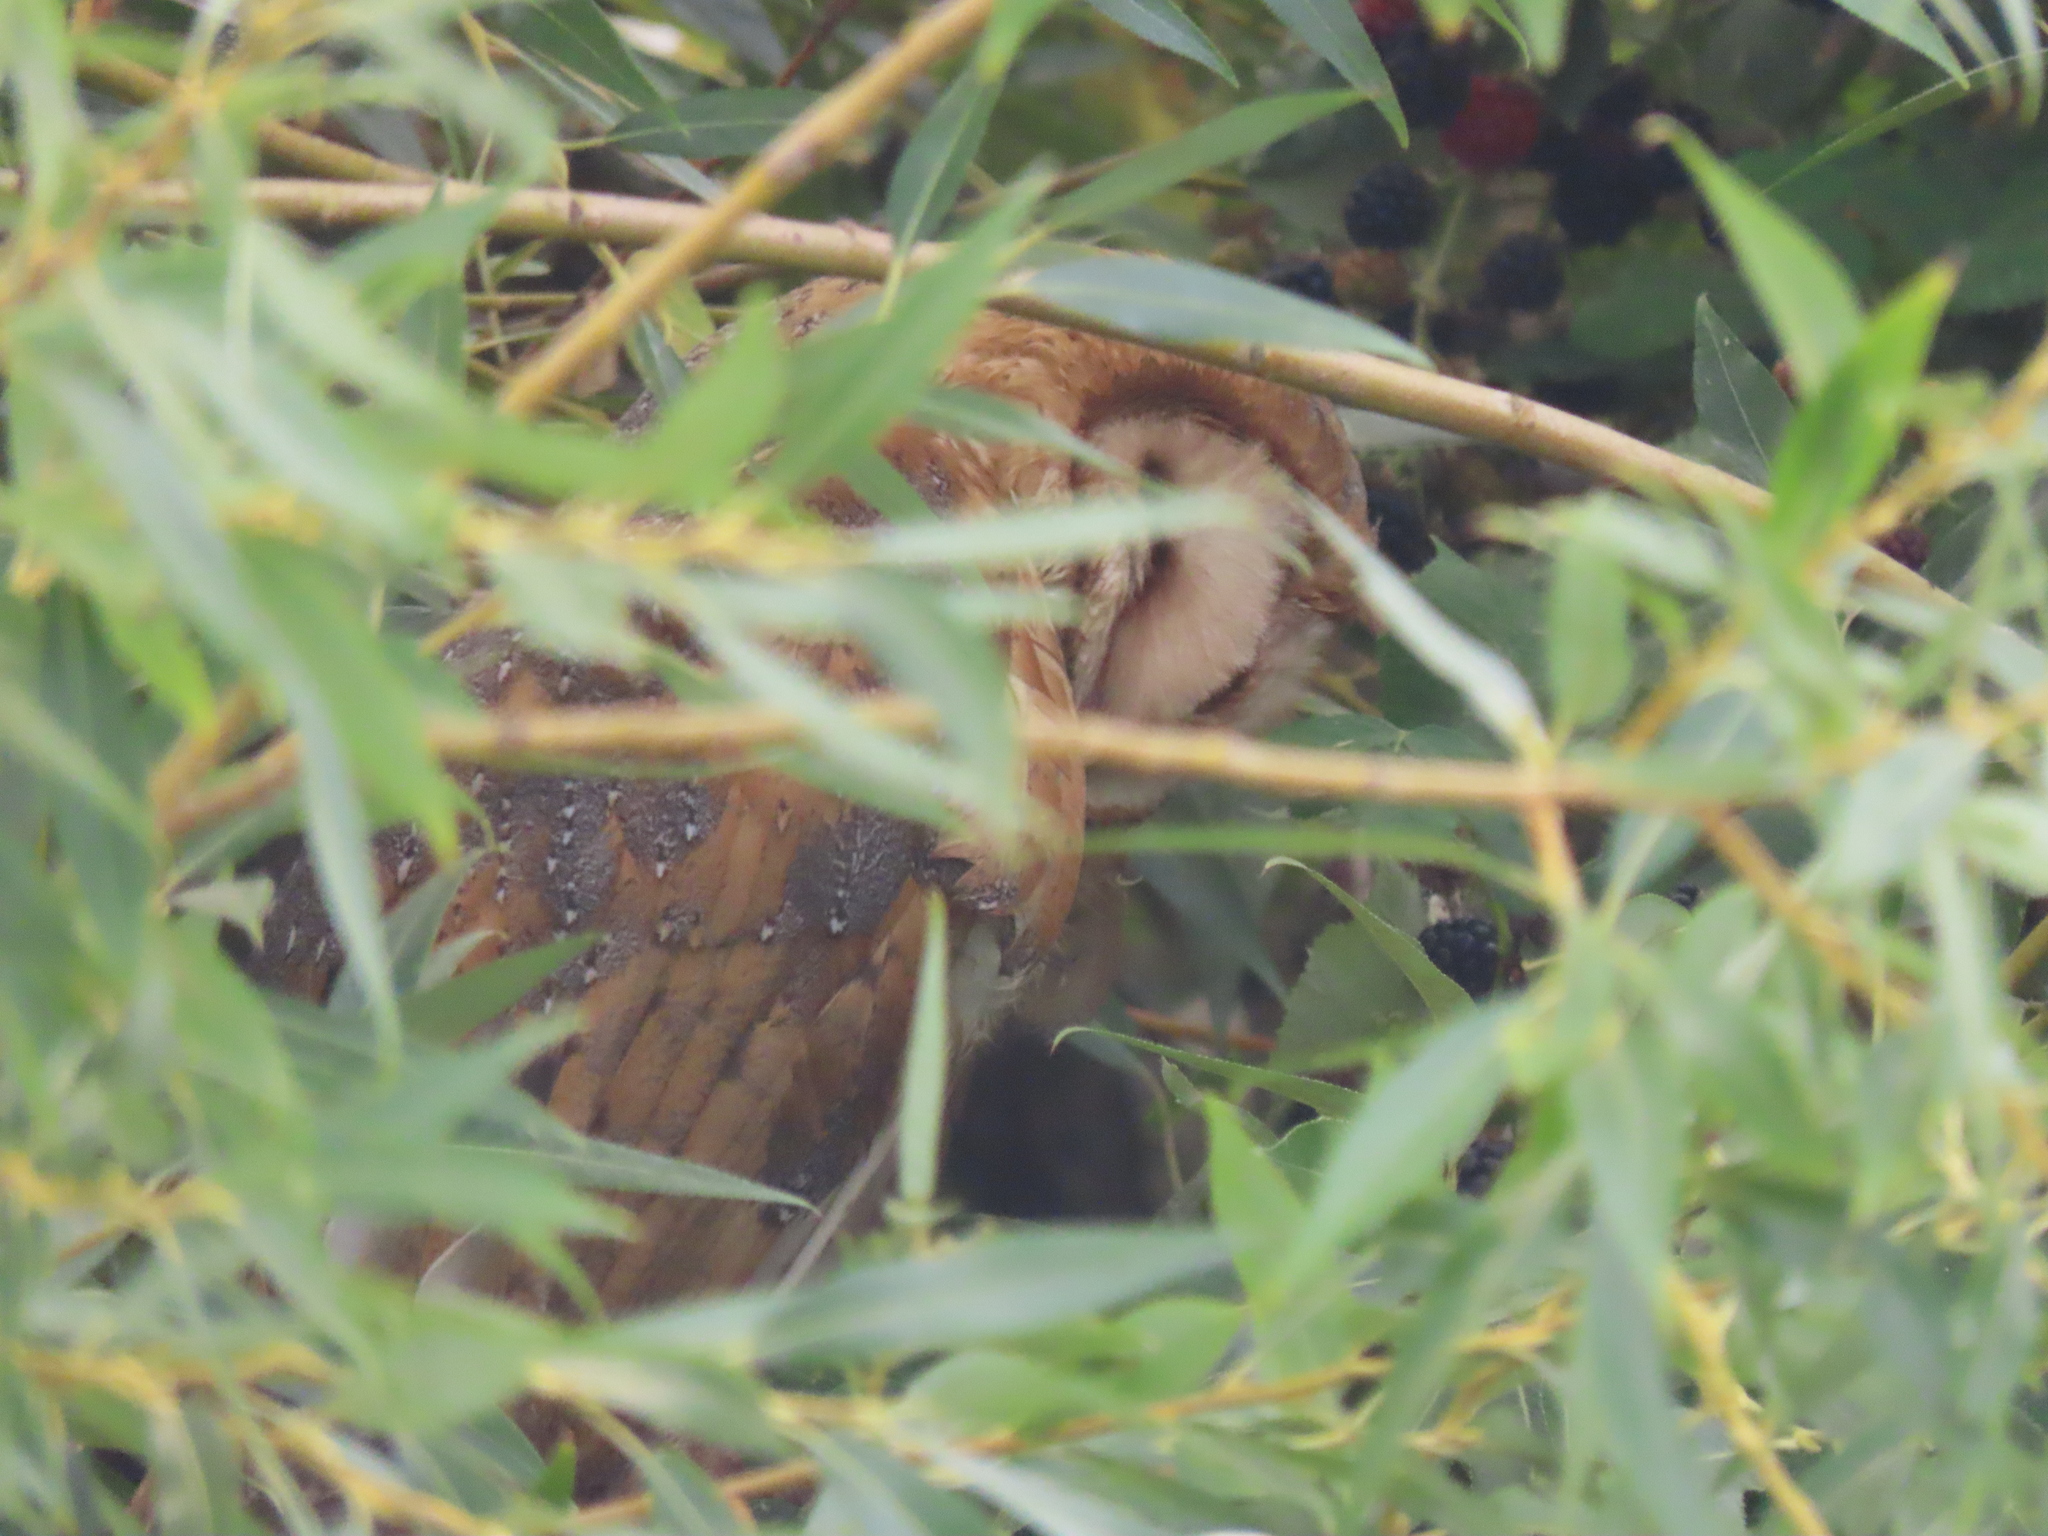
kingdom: Animalia
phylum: Chordata
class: Aves
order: Strigiformes
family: Tytonidae
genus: Tyto
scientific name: Tyto alba
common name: Barn owl
